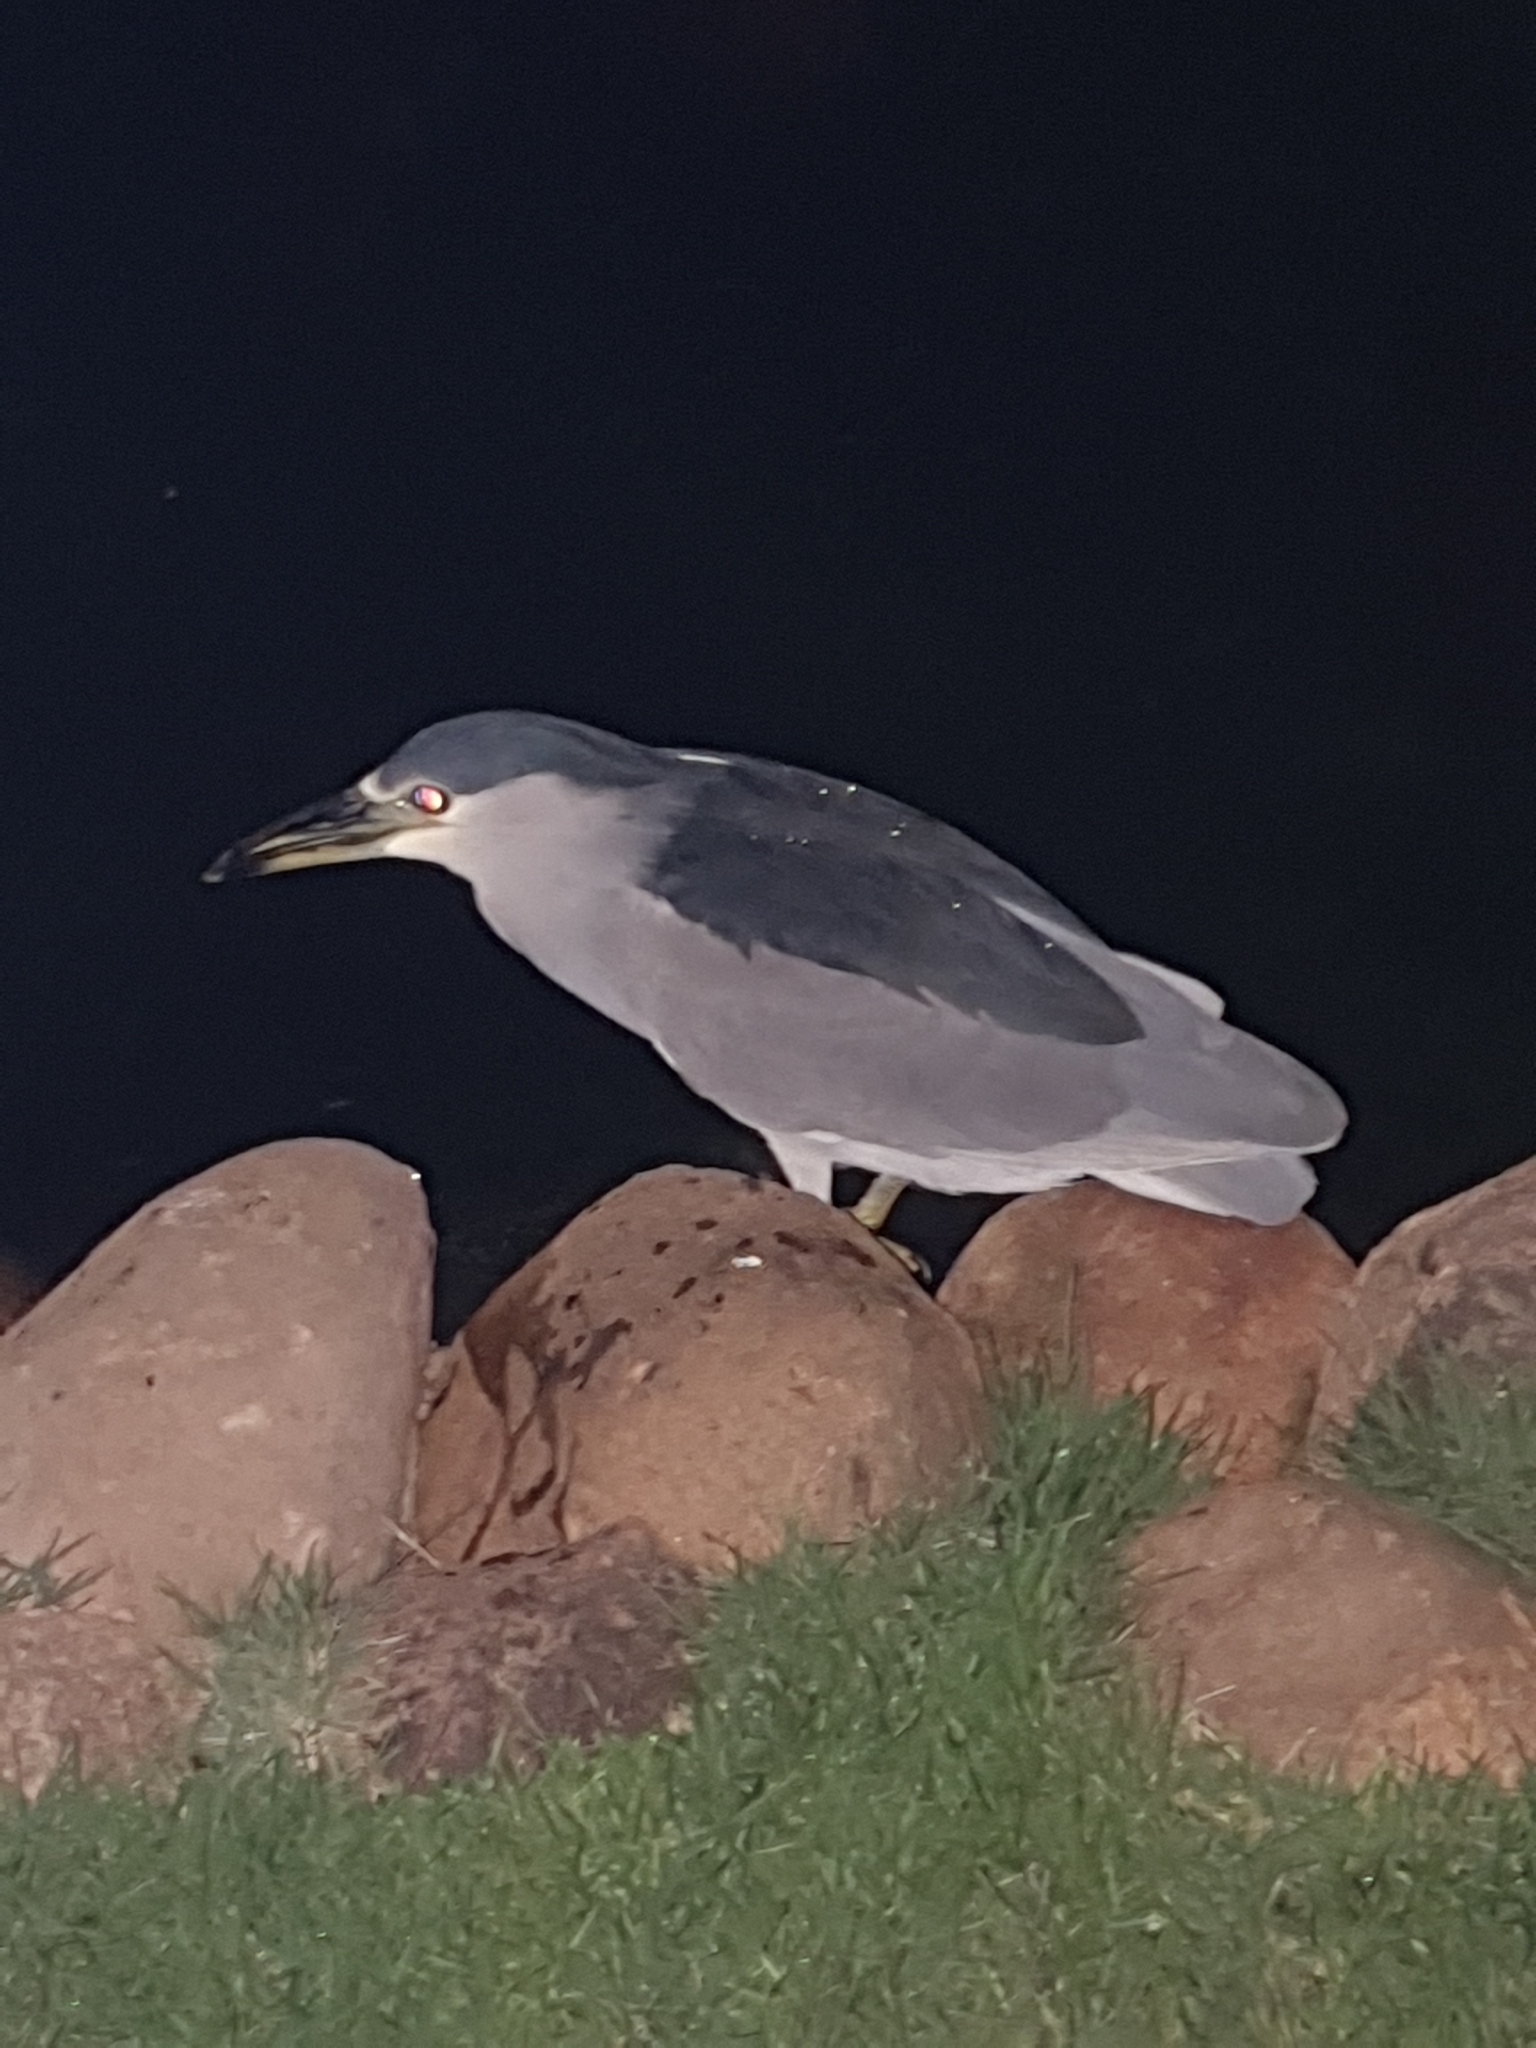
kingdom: Animalia
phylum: Chordata
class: Aves
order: Pelecaniformes
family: Ardeidae
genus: Nycticorax
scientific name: Nycticorax nycticorax
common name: Black-crowned night heron
